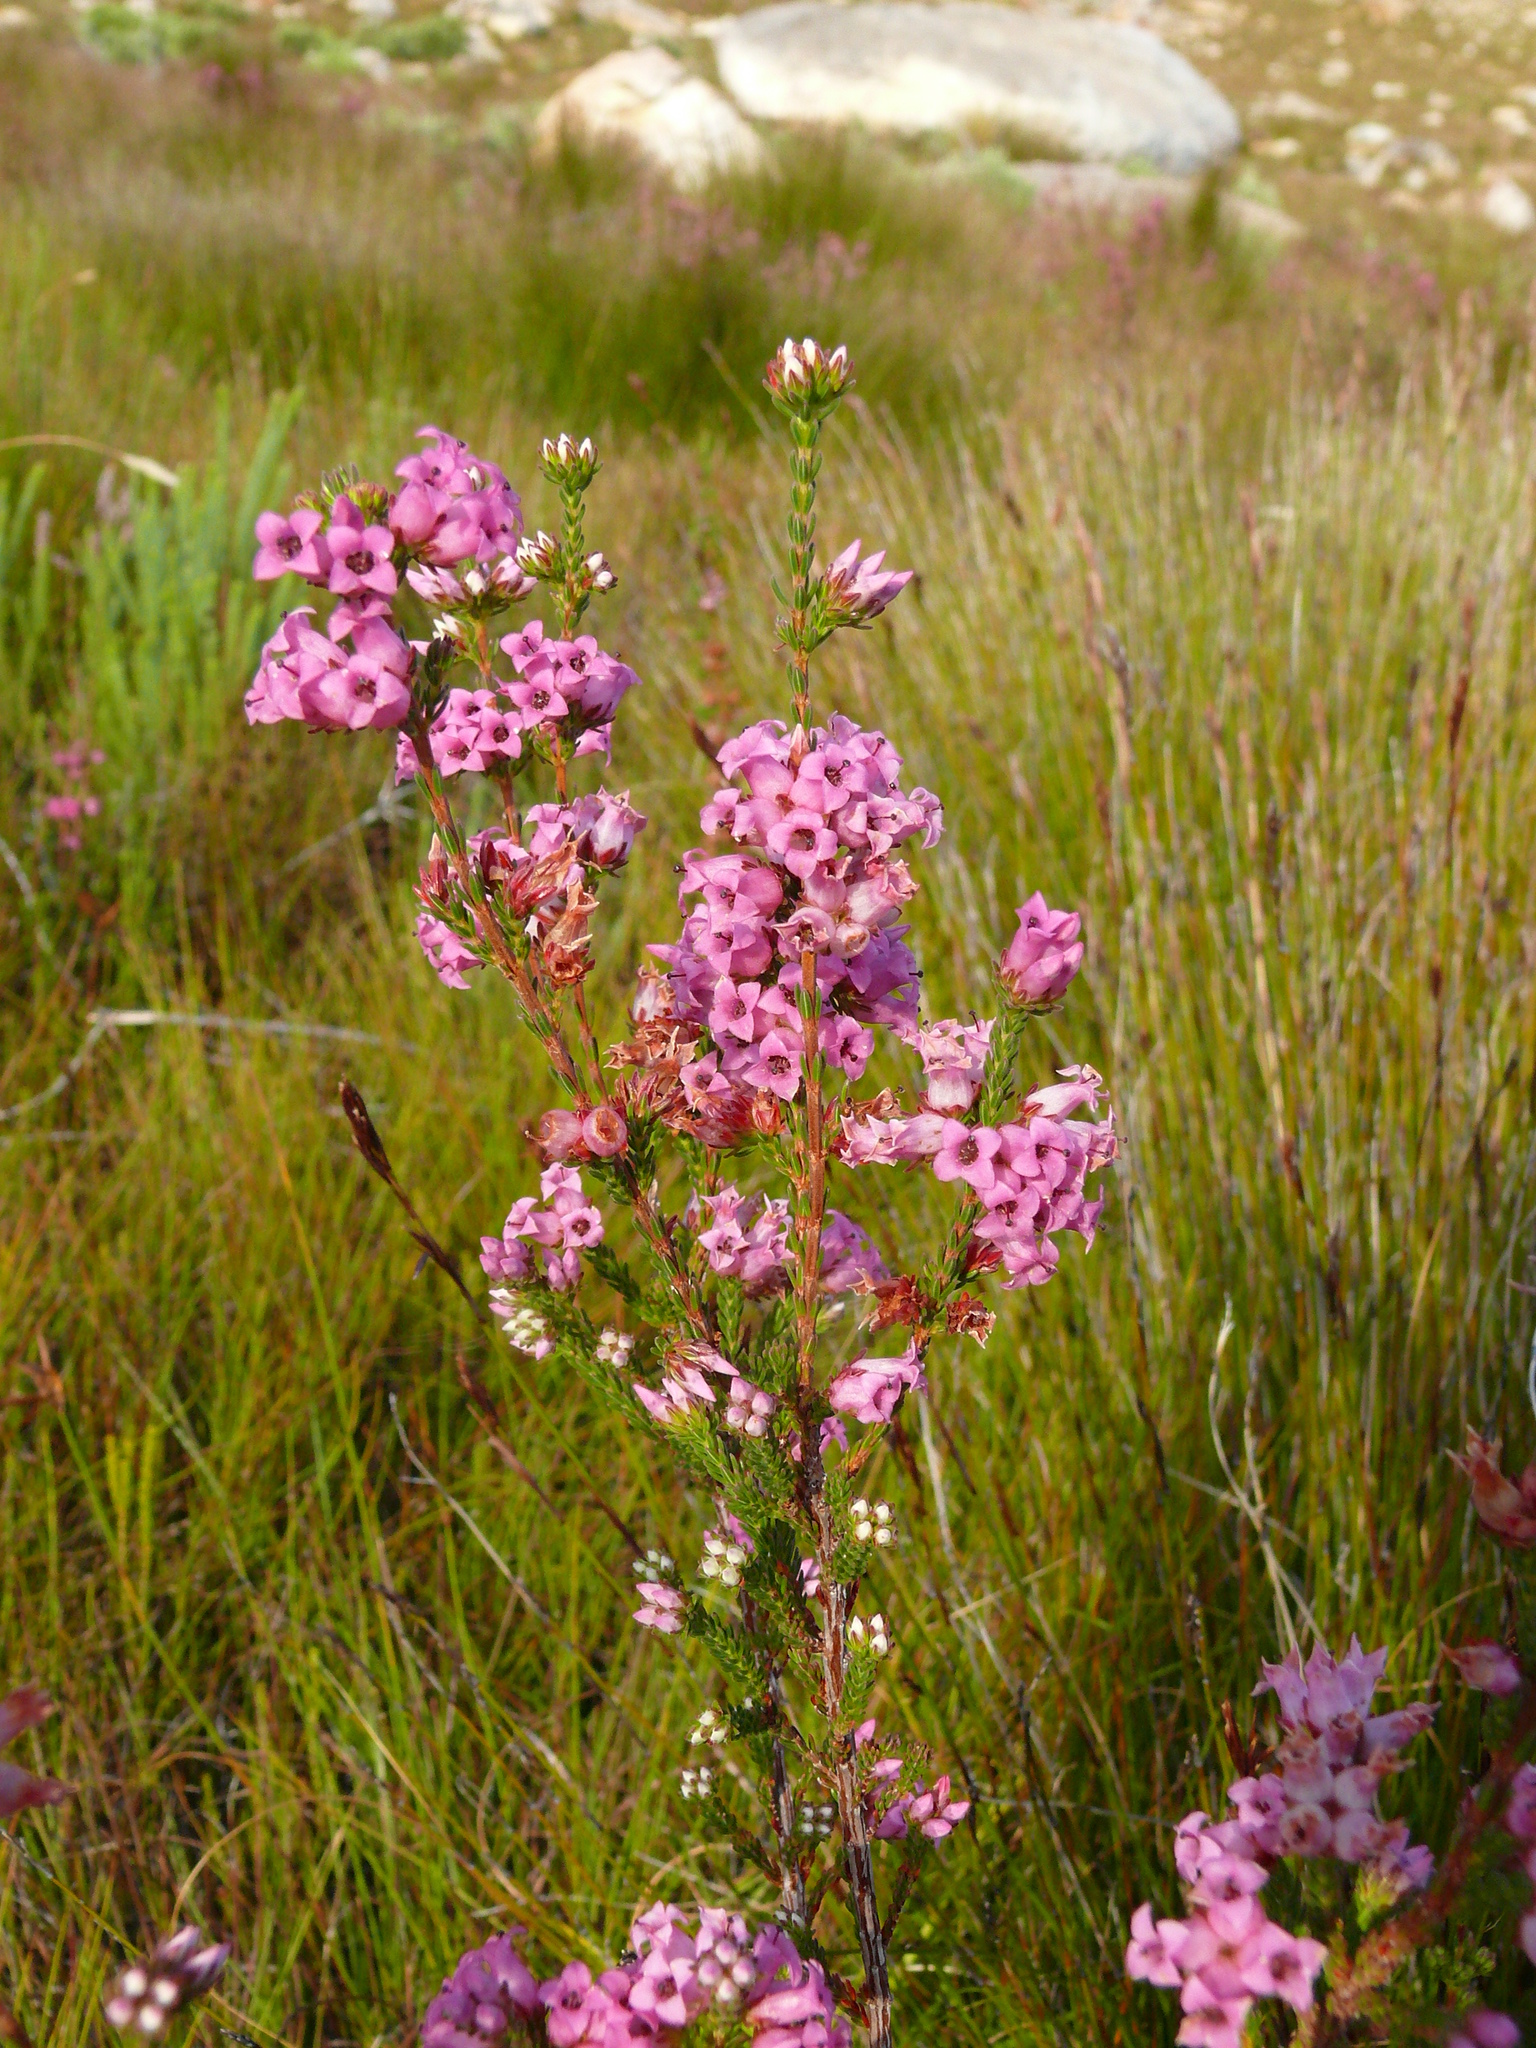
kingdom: Plantae
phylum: Tracheophyta
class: Magnoliopsida
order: Ericales
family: Ericaceae
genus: Erica
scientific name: Erica daphniflora
